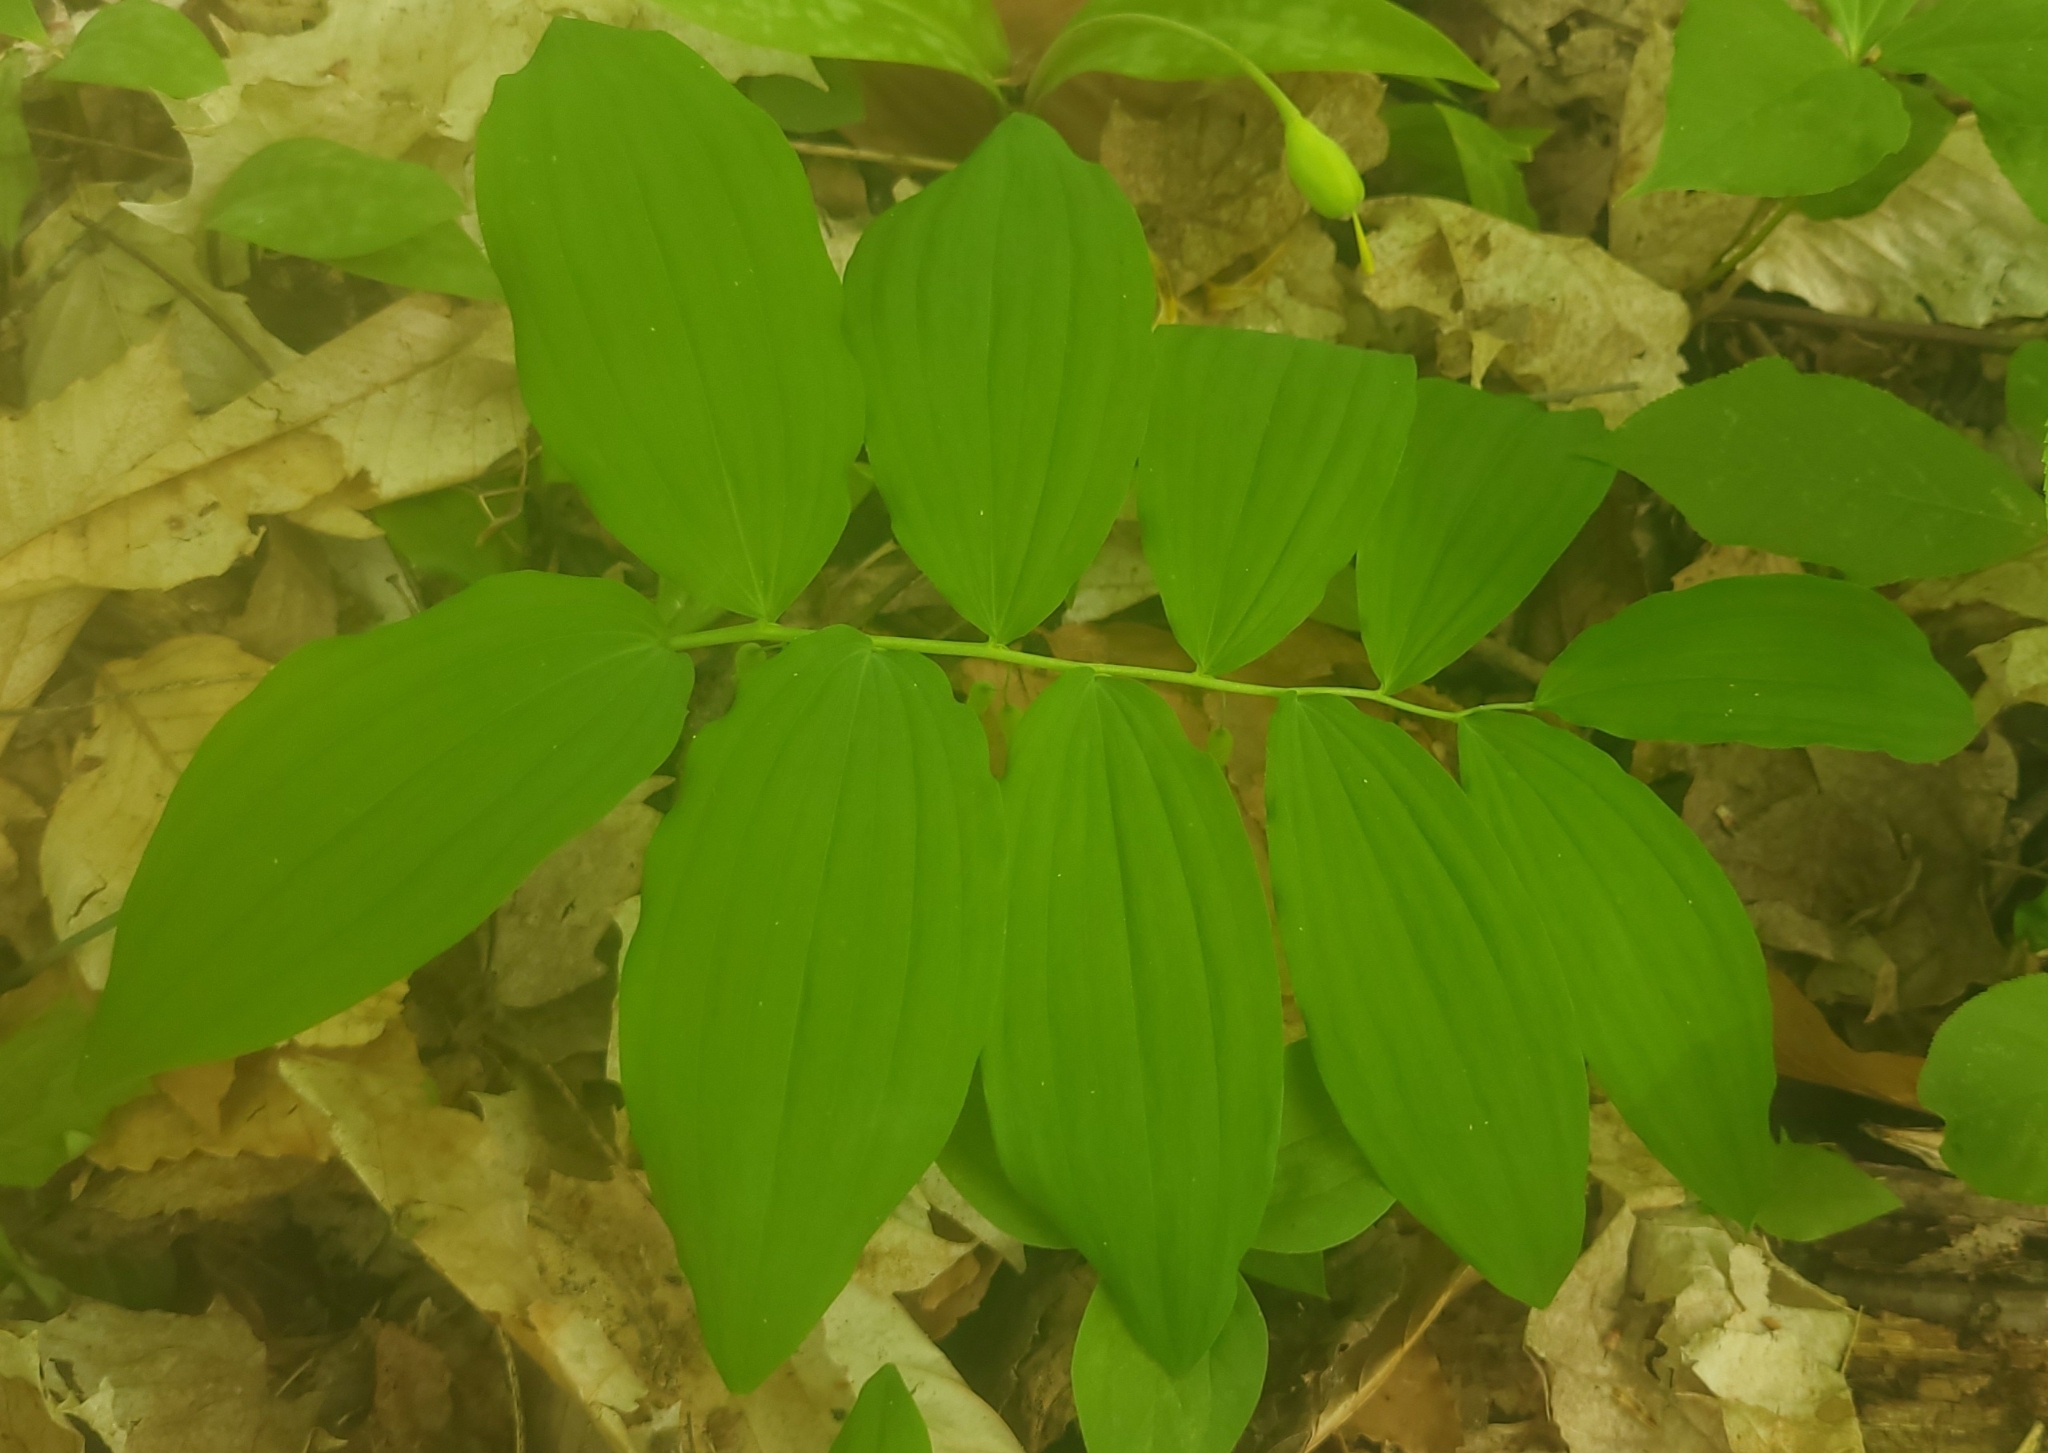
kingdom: Plantae
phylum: Tracheophyta
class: Liliopsida
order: Asparagales
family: Asparagaceae
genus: Polygonatum
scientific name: Polygonatum pubescens
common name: Downy solomon's seal
